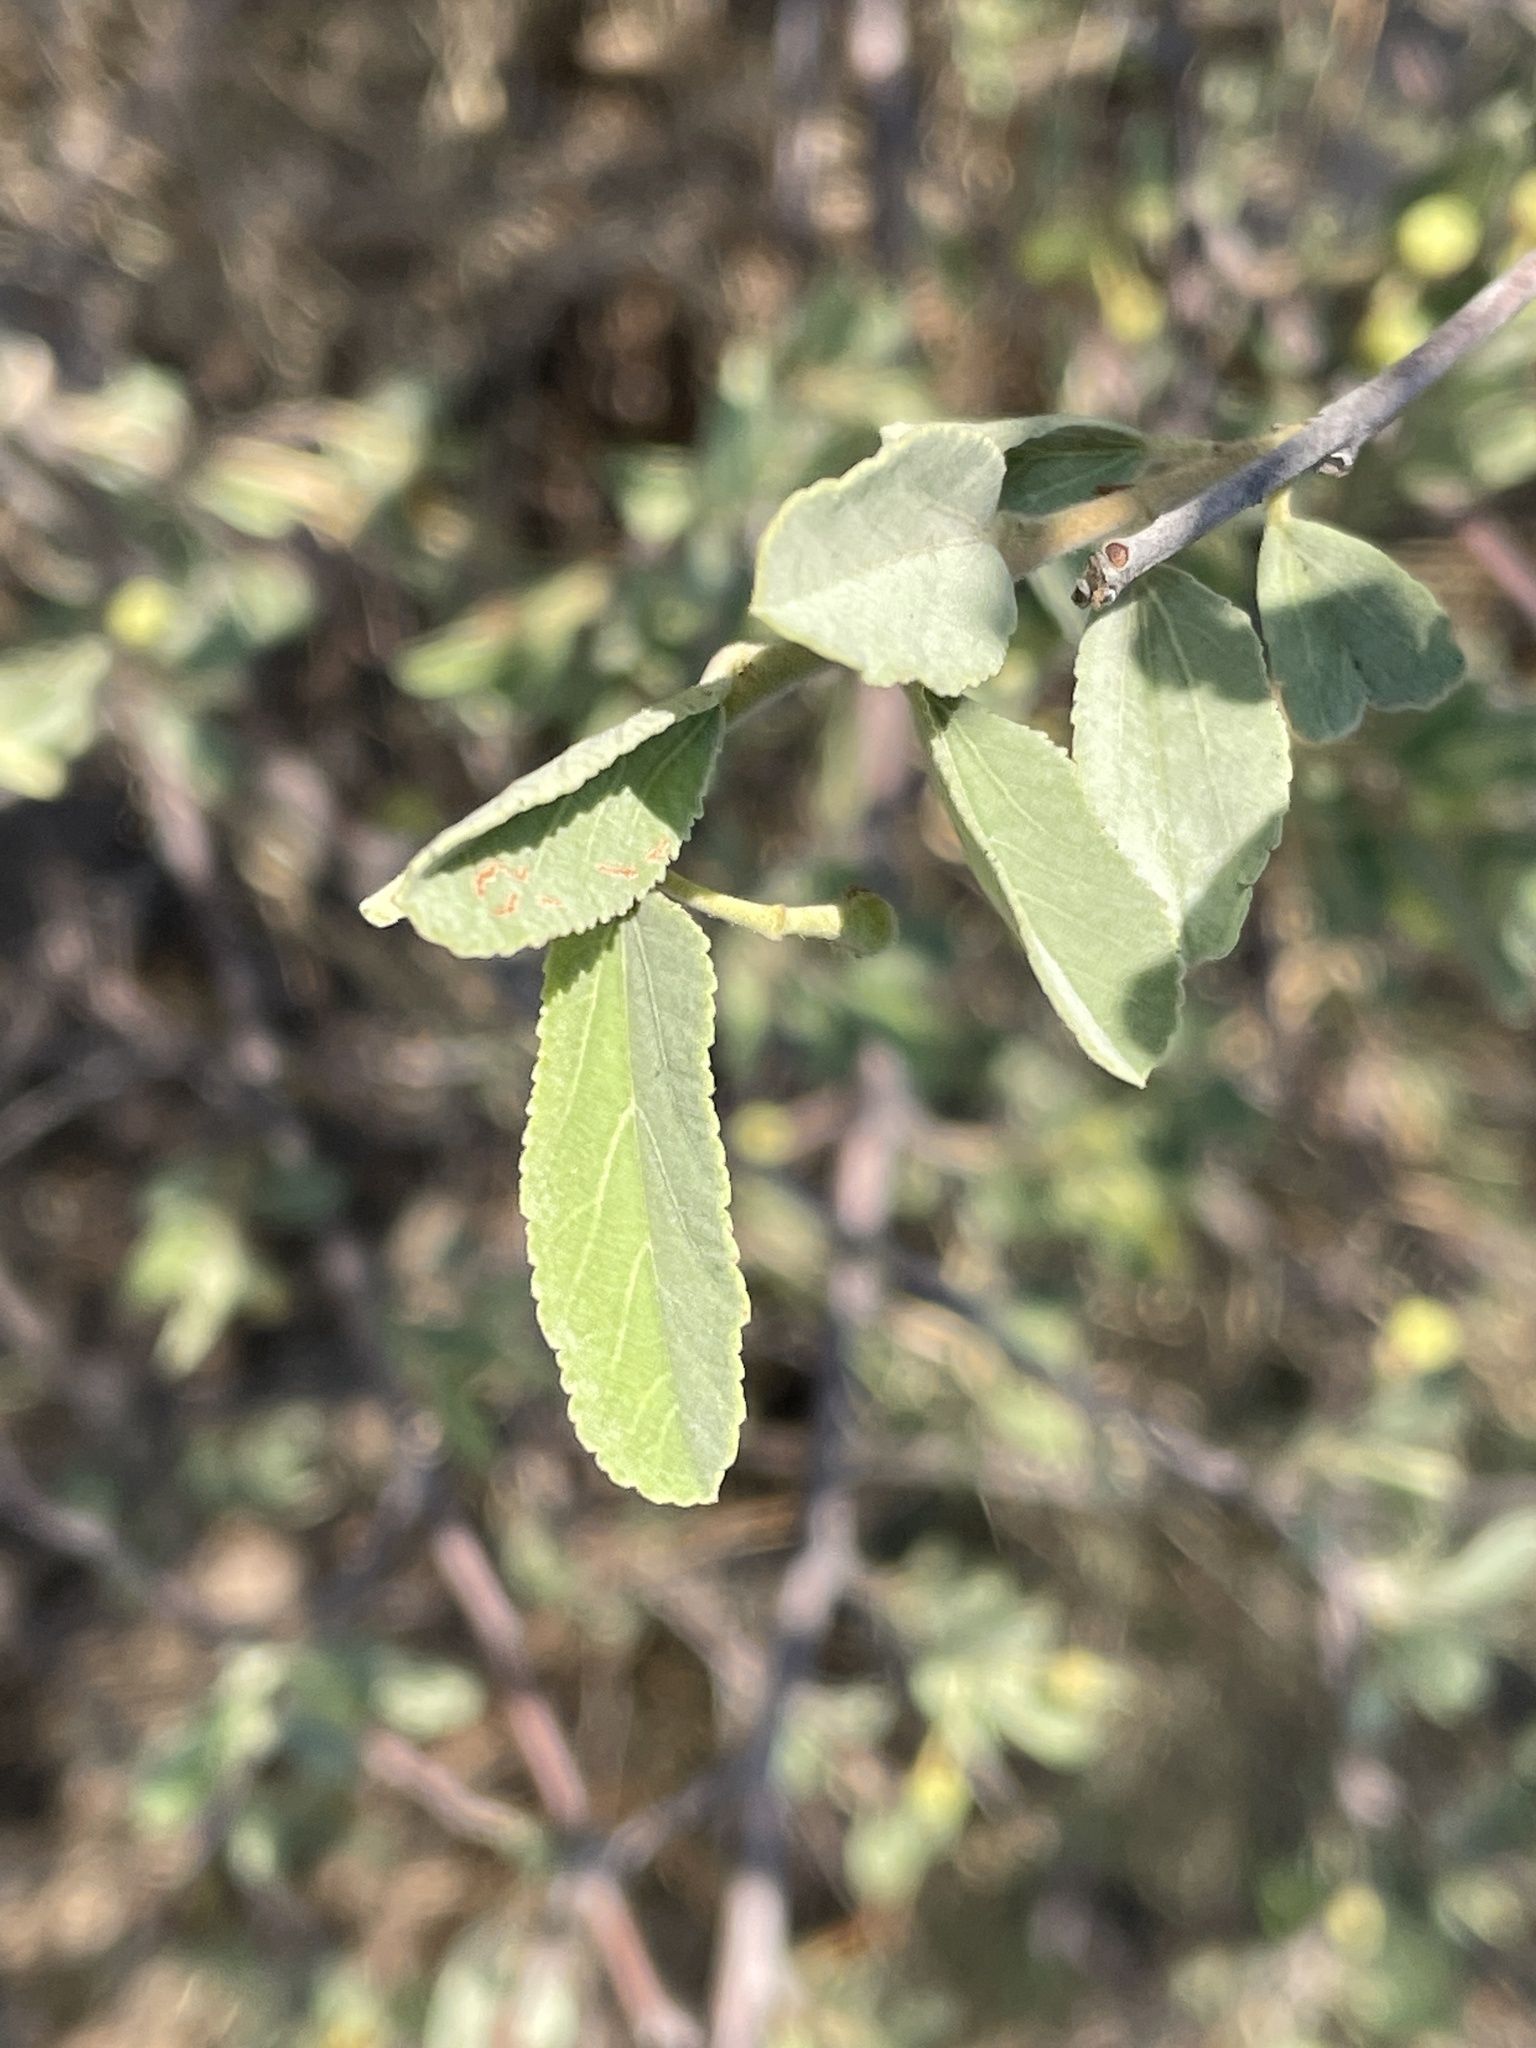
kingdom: Plantae
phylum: Tracheophyta
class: Magnoliopsida
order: Malvales
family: Malvaceae
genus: Grewia
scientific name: Grewia flava
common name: Brandy bush
